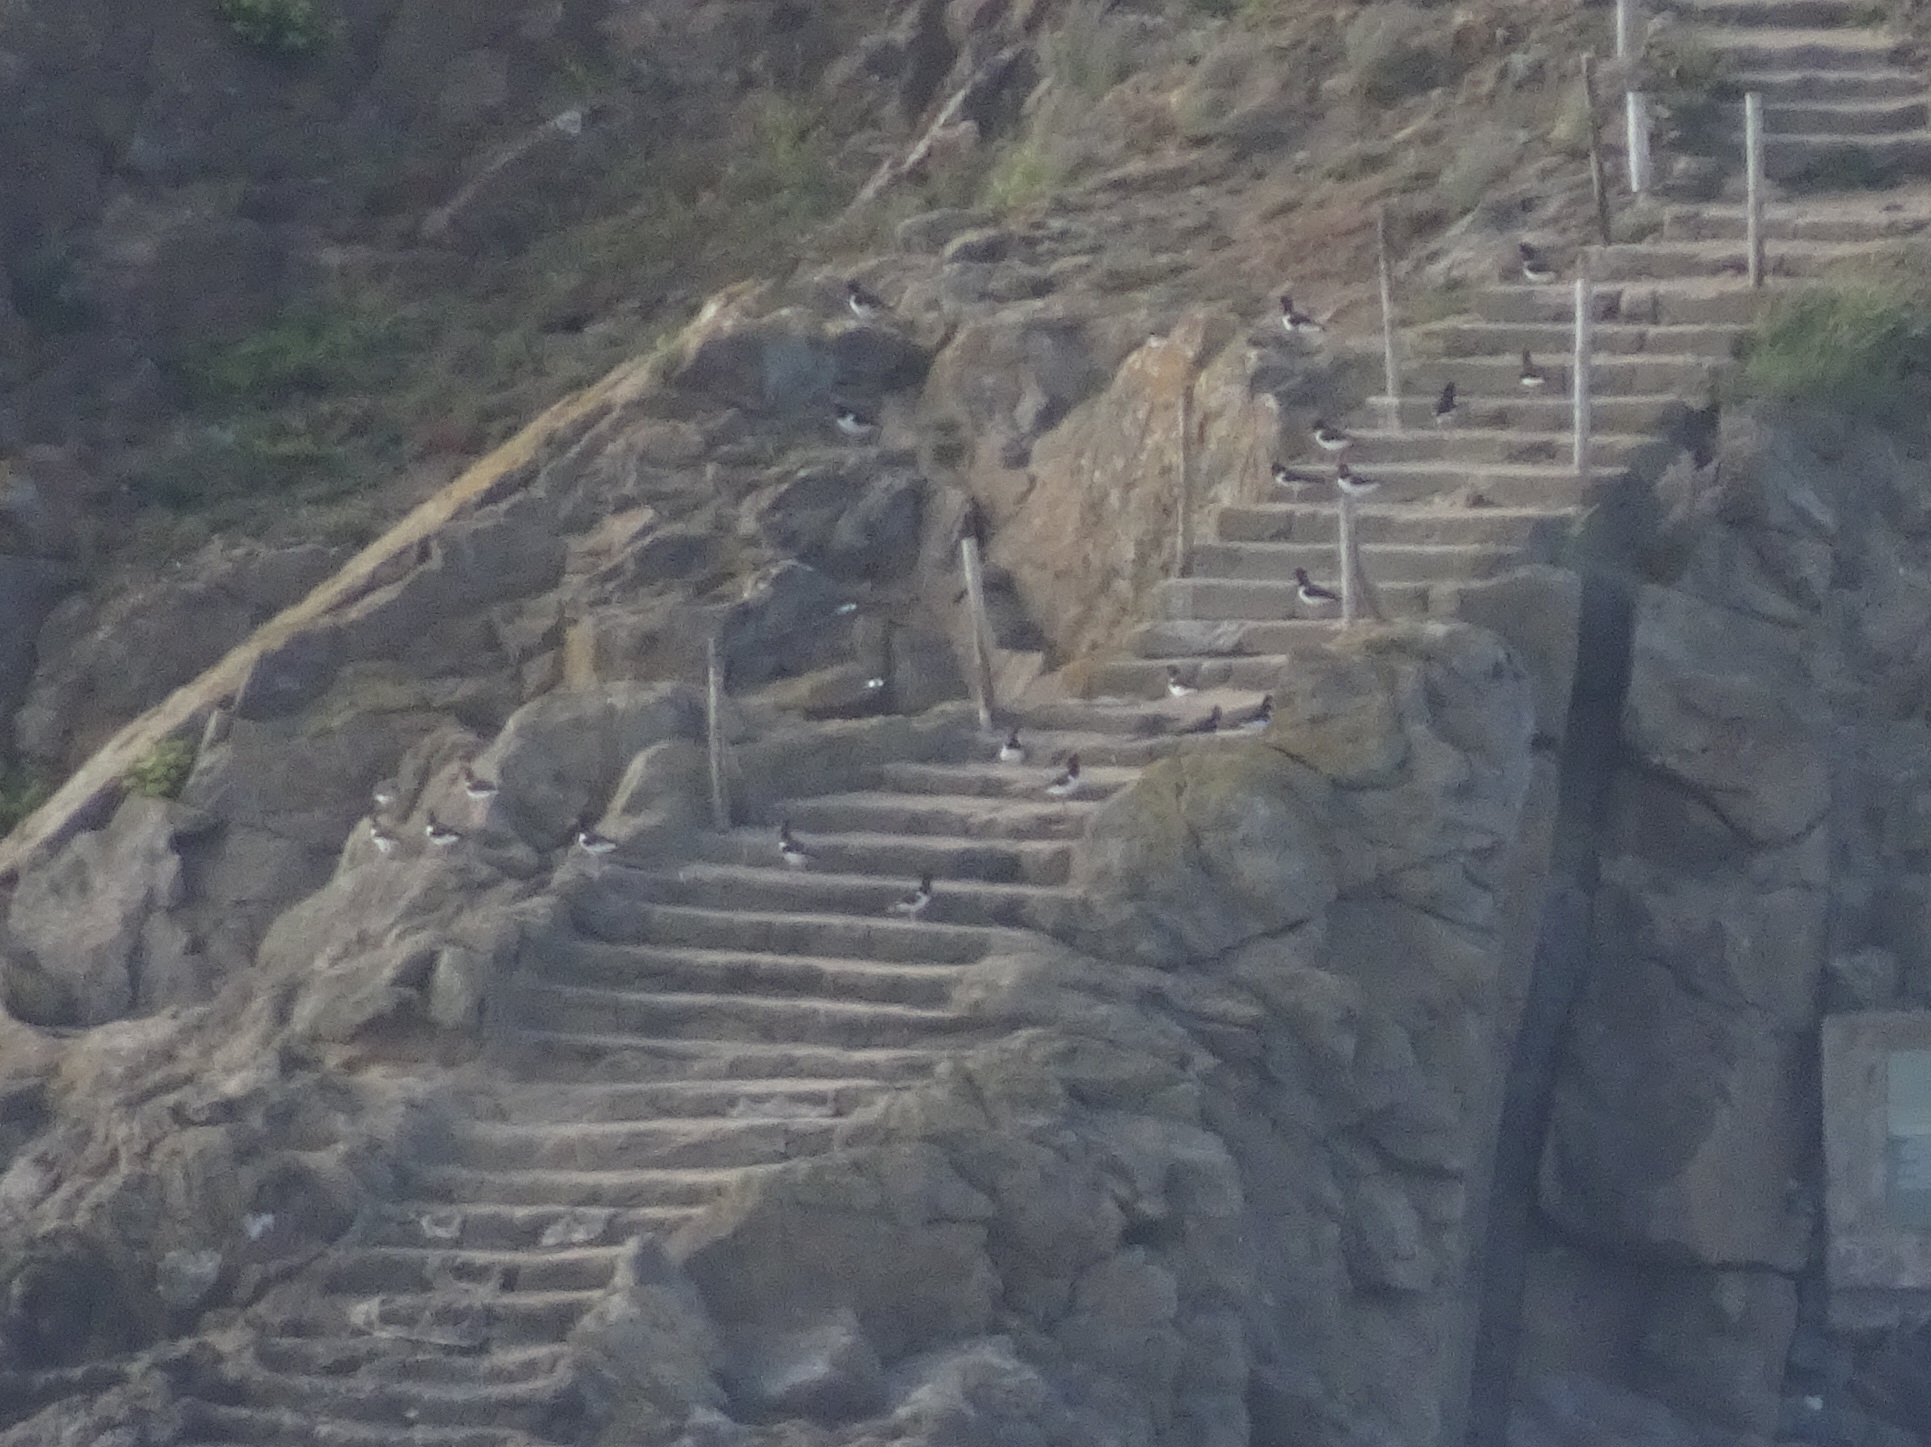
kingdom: Animalia
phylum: Chordata
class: Aves
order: Charadriiformes
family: Haematopodidae
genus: Haematopus
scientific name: Haematopus ostralegus
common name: Eurasian oystercatcher
